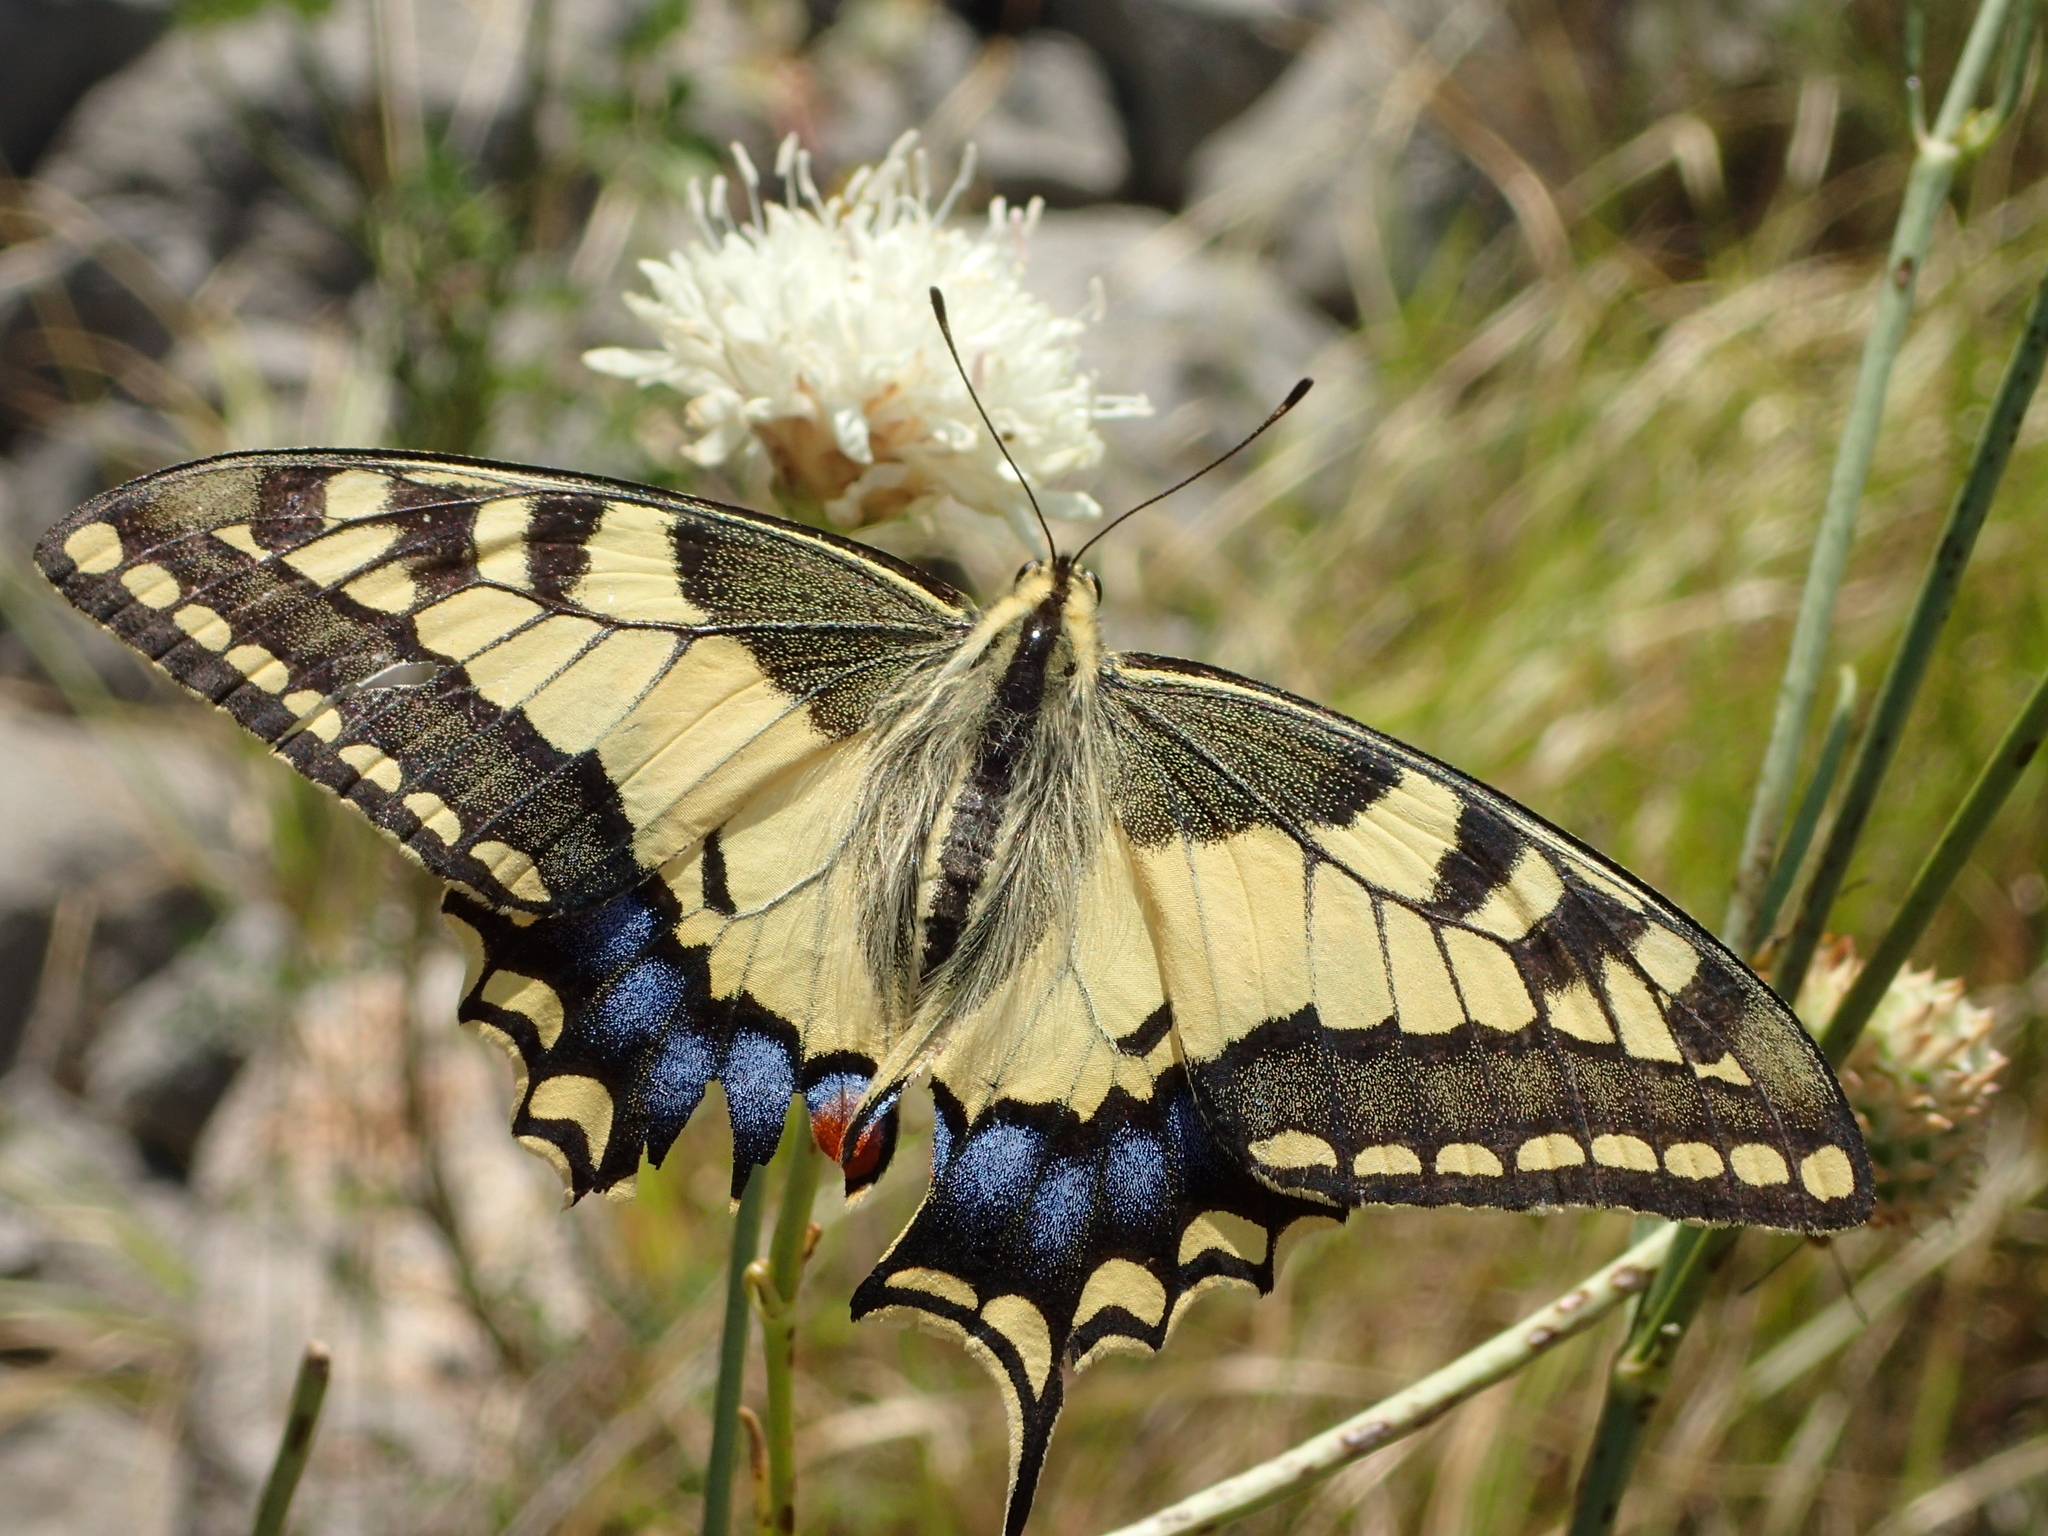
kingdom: Animalia
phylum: Arthropoda
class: Insecta
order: Lepidoptera
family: Papilionidae
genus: Papilio
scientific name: Papilio machaon
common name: Swallowtail
